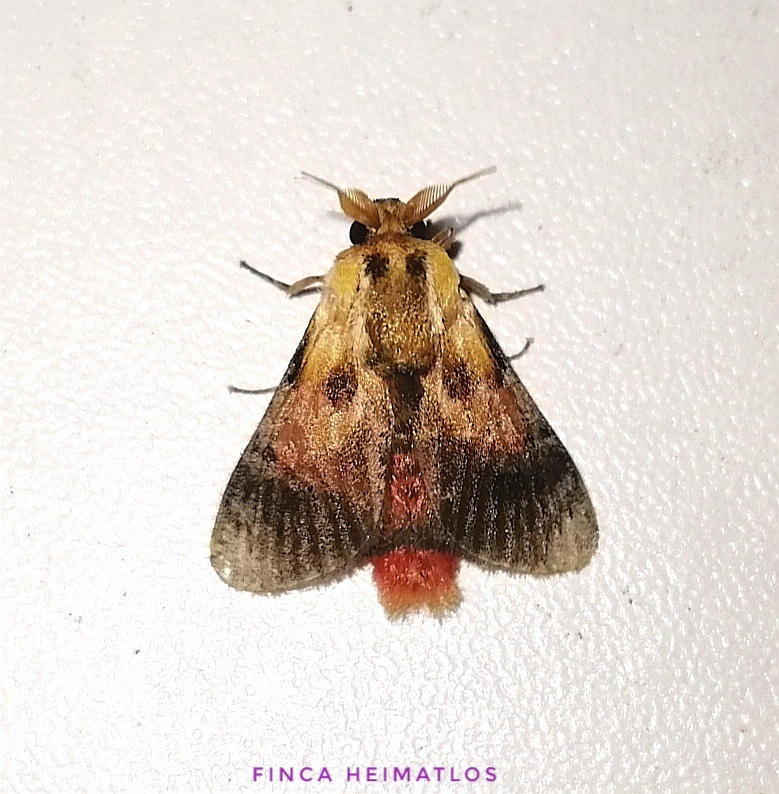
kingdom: Animalia
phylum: Arthropoda
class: Insecta
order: Lepidoptera
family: Aididae
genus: Aidos
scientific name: Aidos perfusa
